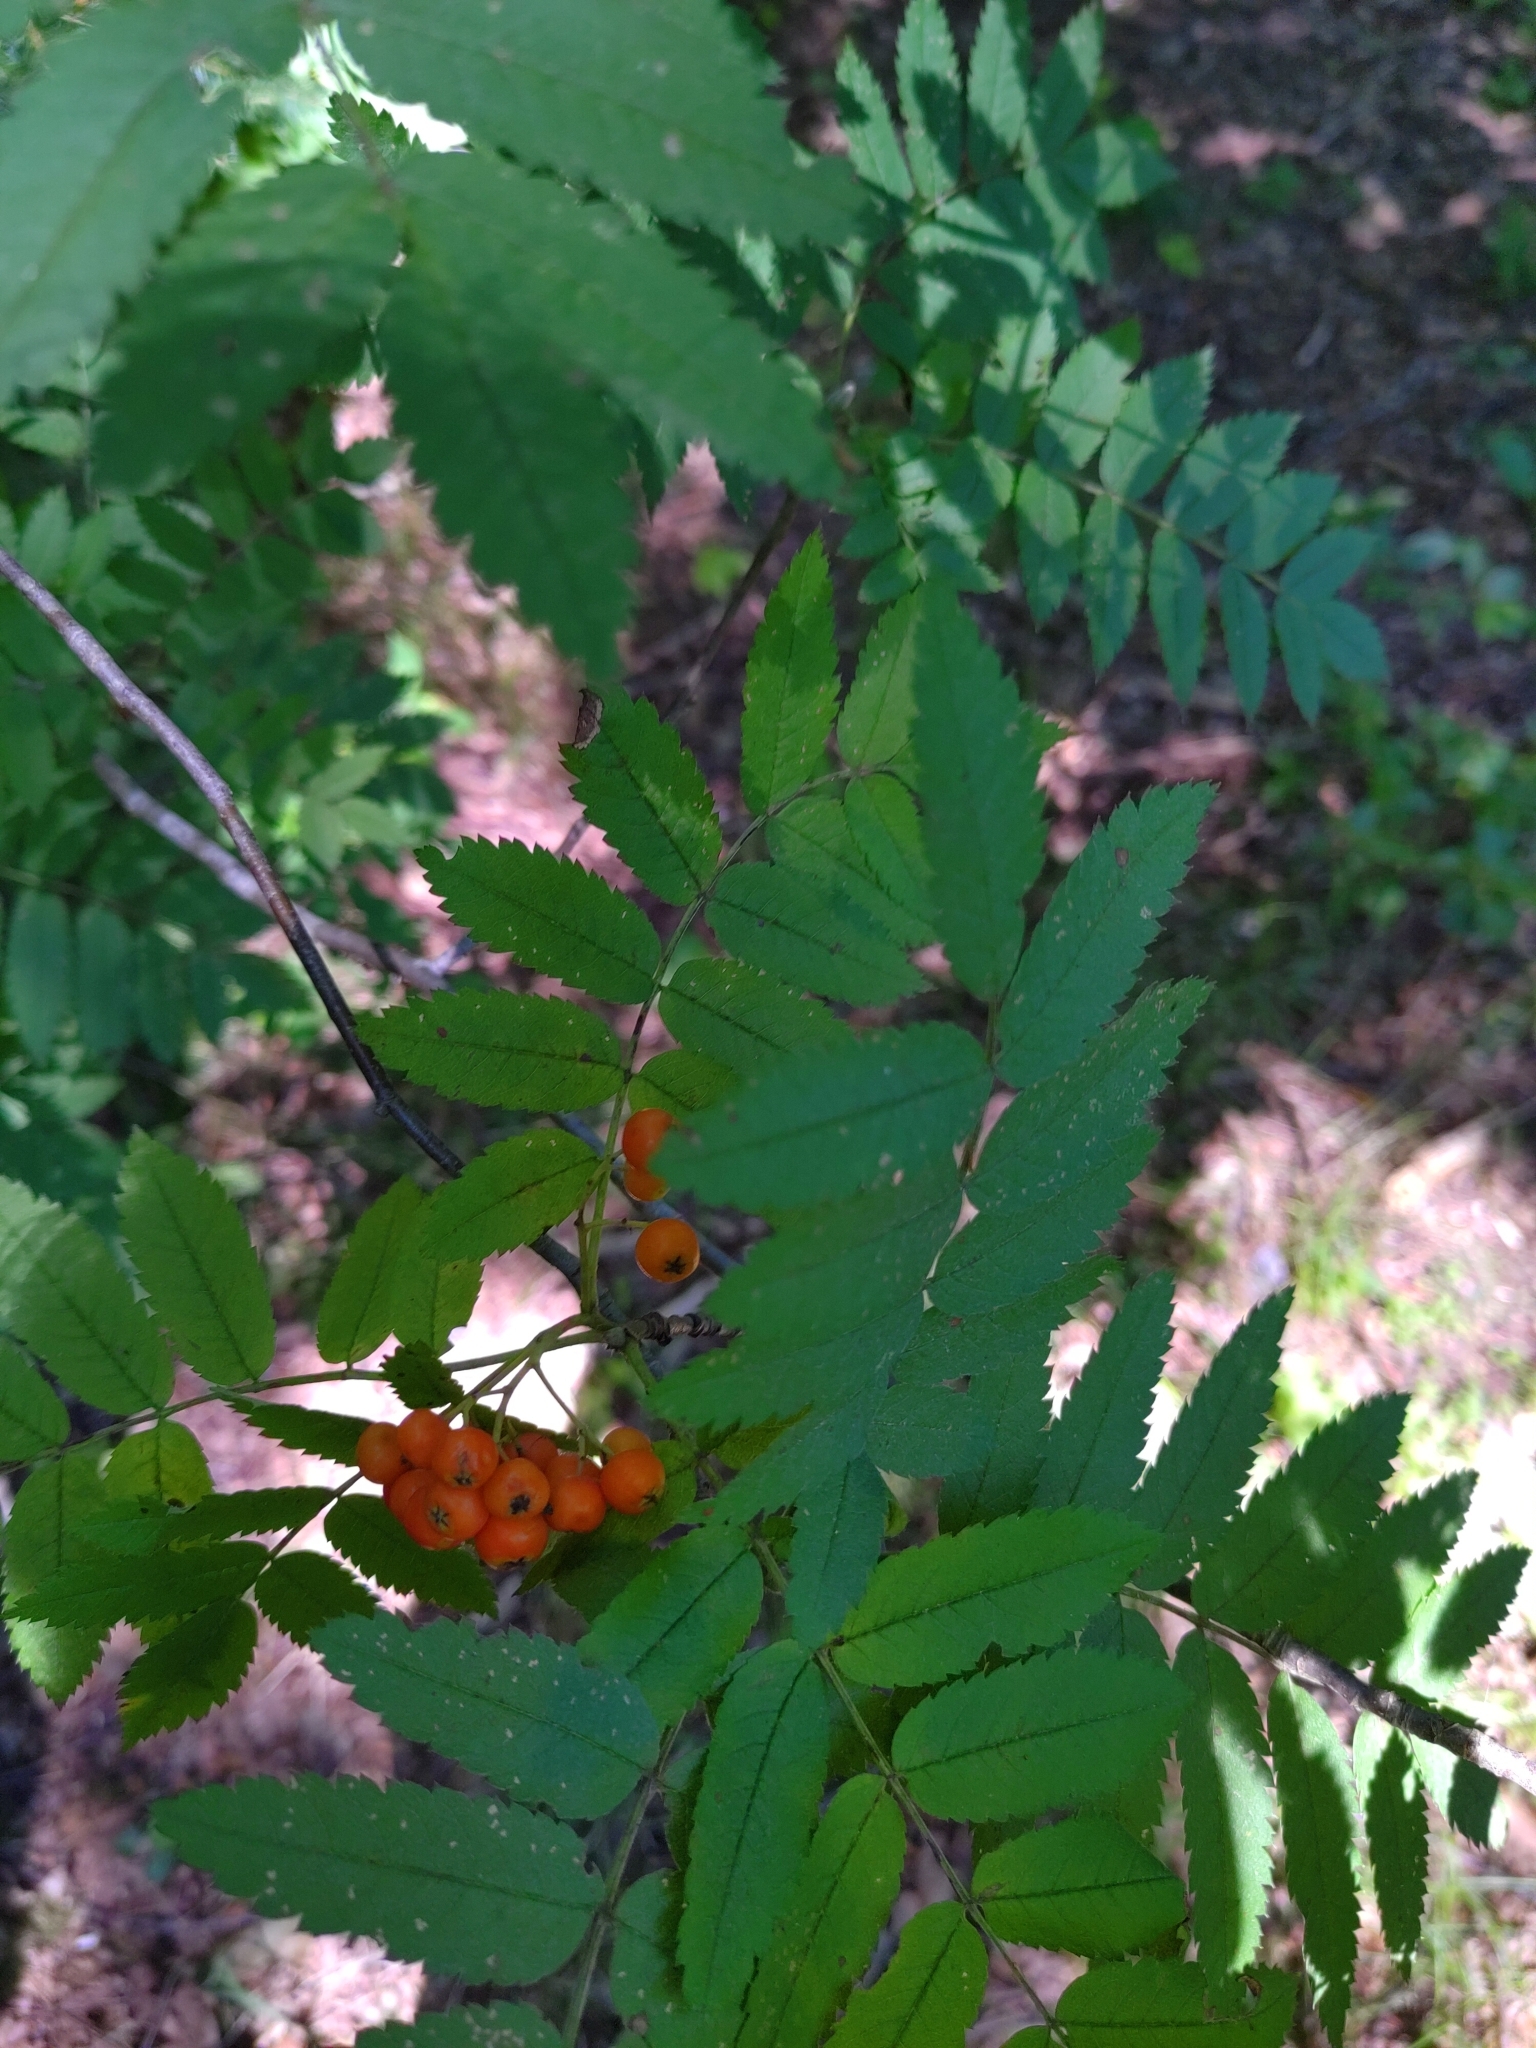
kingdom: Plantae
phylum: Tracheophyta
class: Magnoliopsida
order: Rosales
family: Rosaceae
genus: Sorbus
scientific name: Sorbus aucuparia
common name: Rowan
